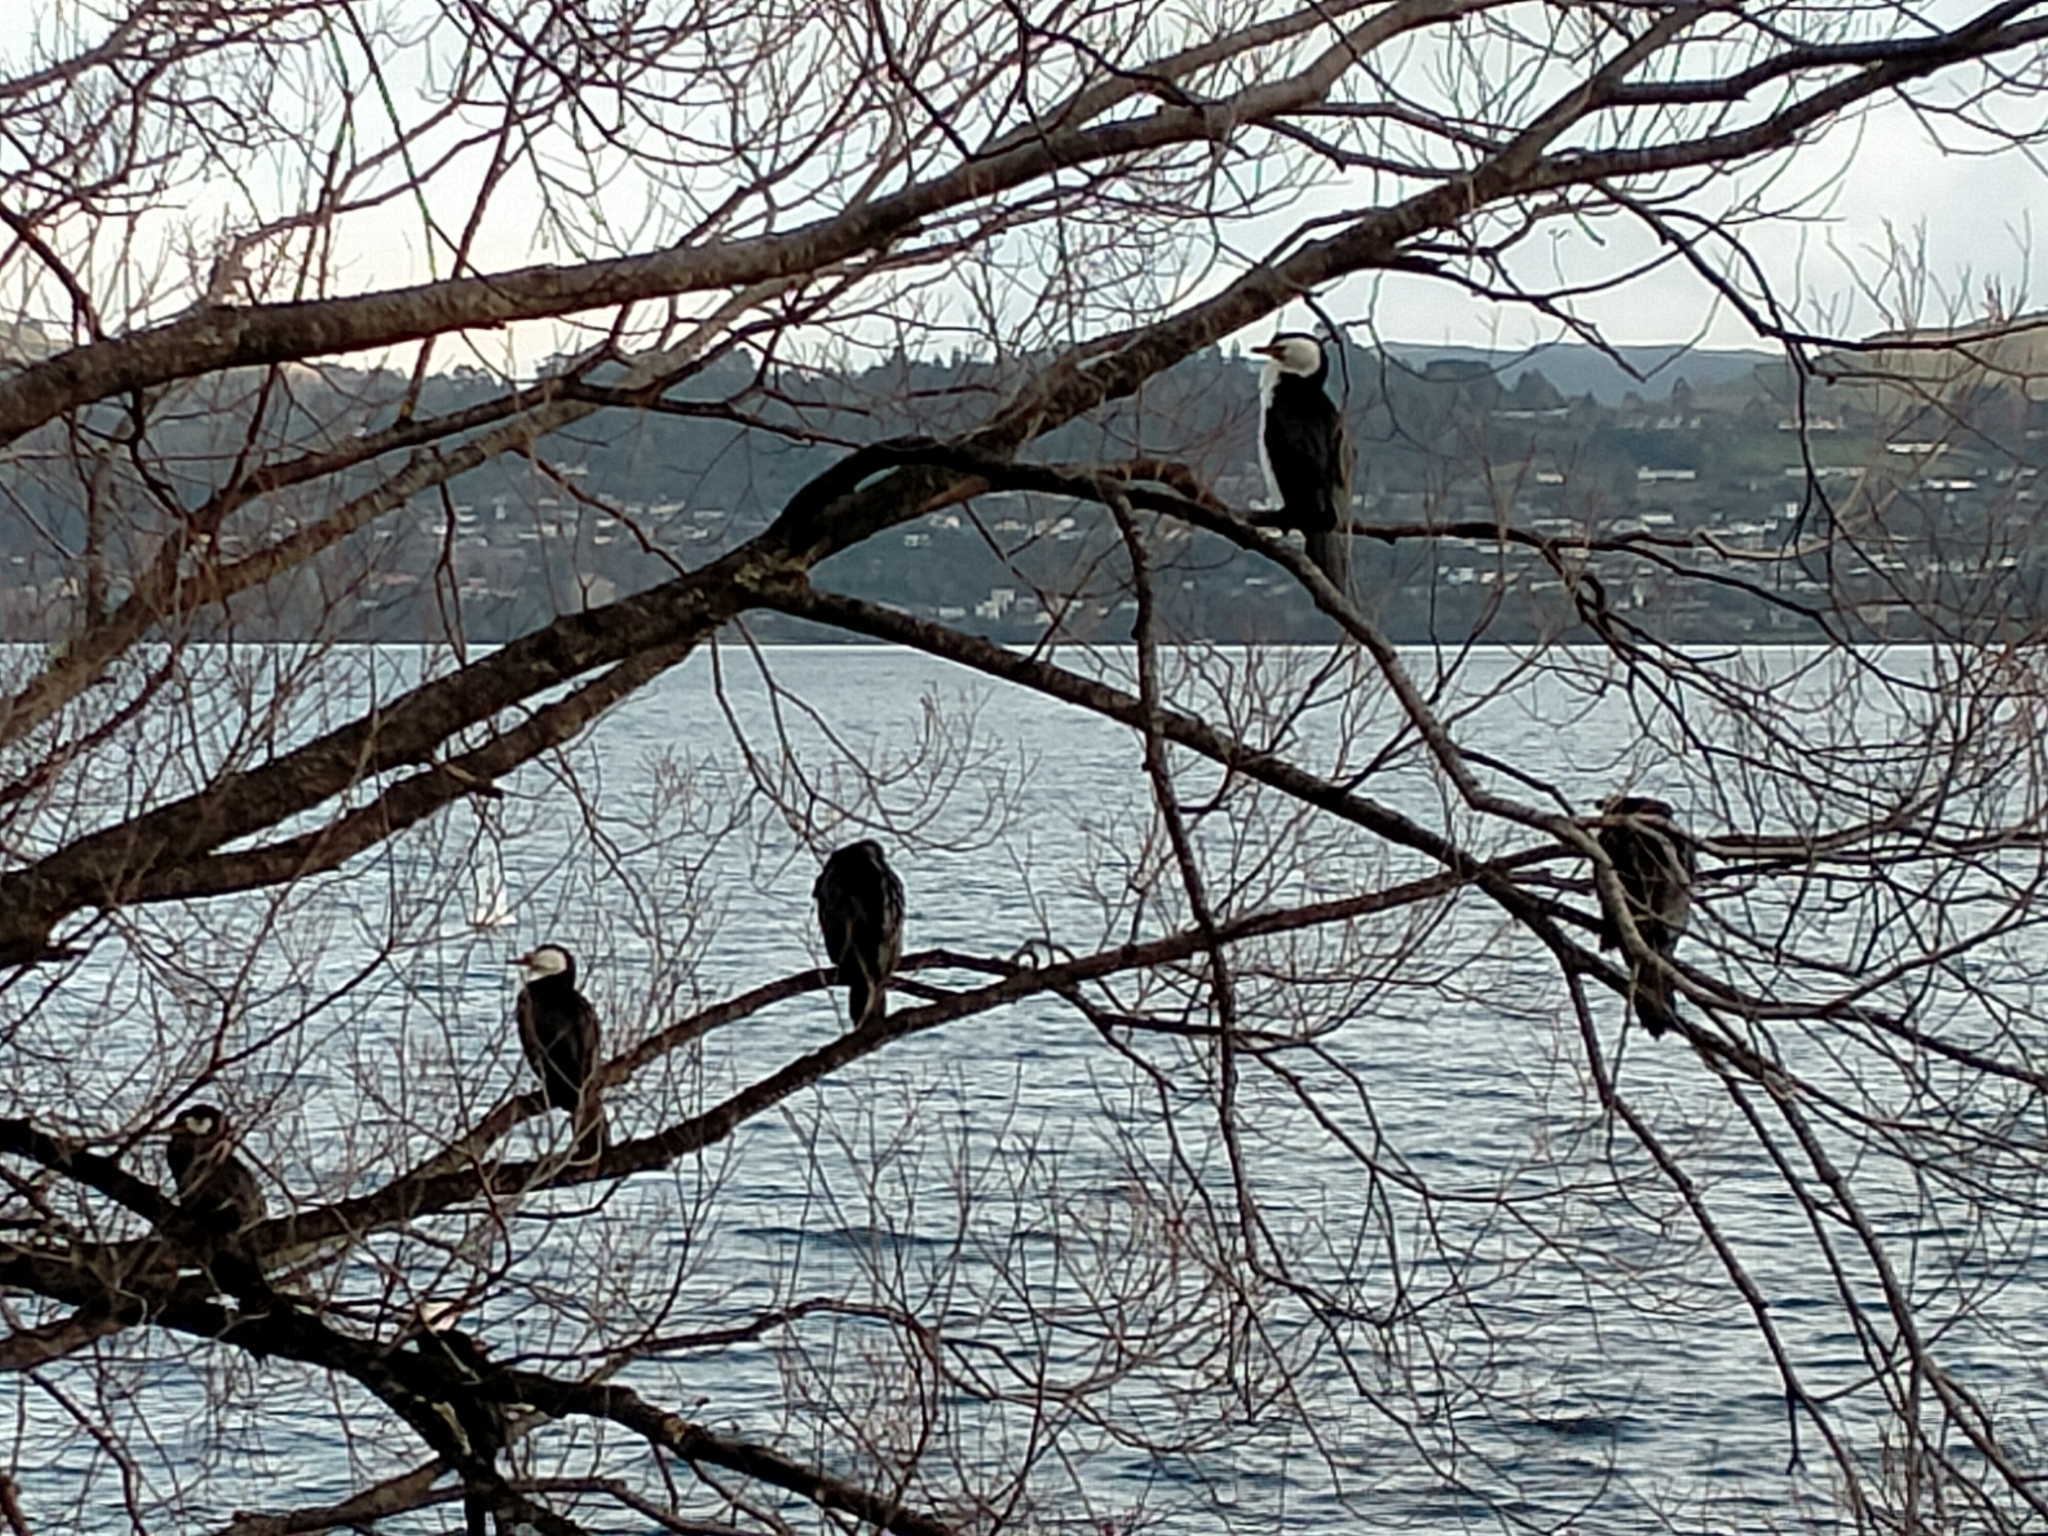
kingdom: Animalia
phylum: Chordata
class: Aves
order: Suliformes
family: Phalacrocoracidae
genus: Microcarbo
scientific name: Microcarbo melanoleucos
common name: Little pied cormorant
